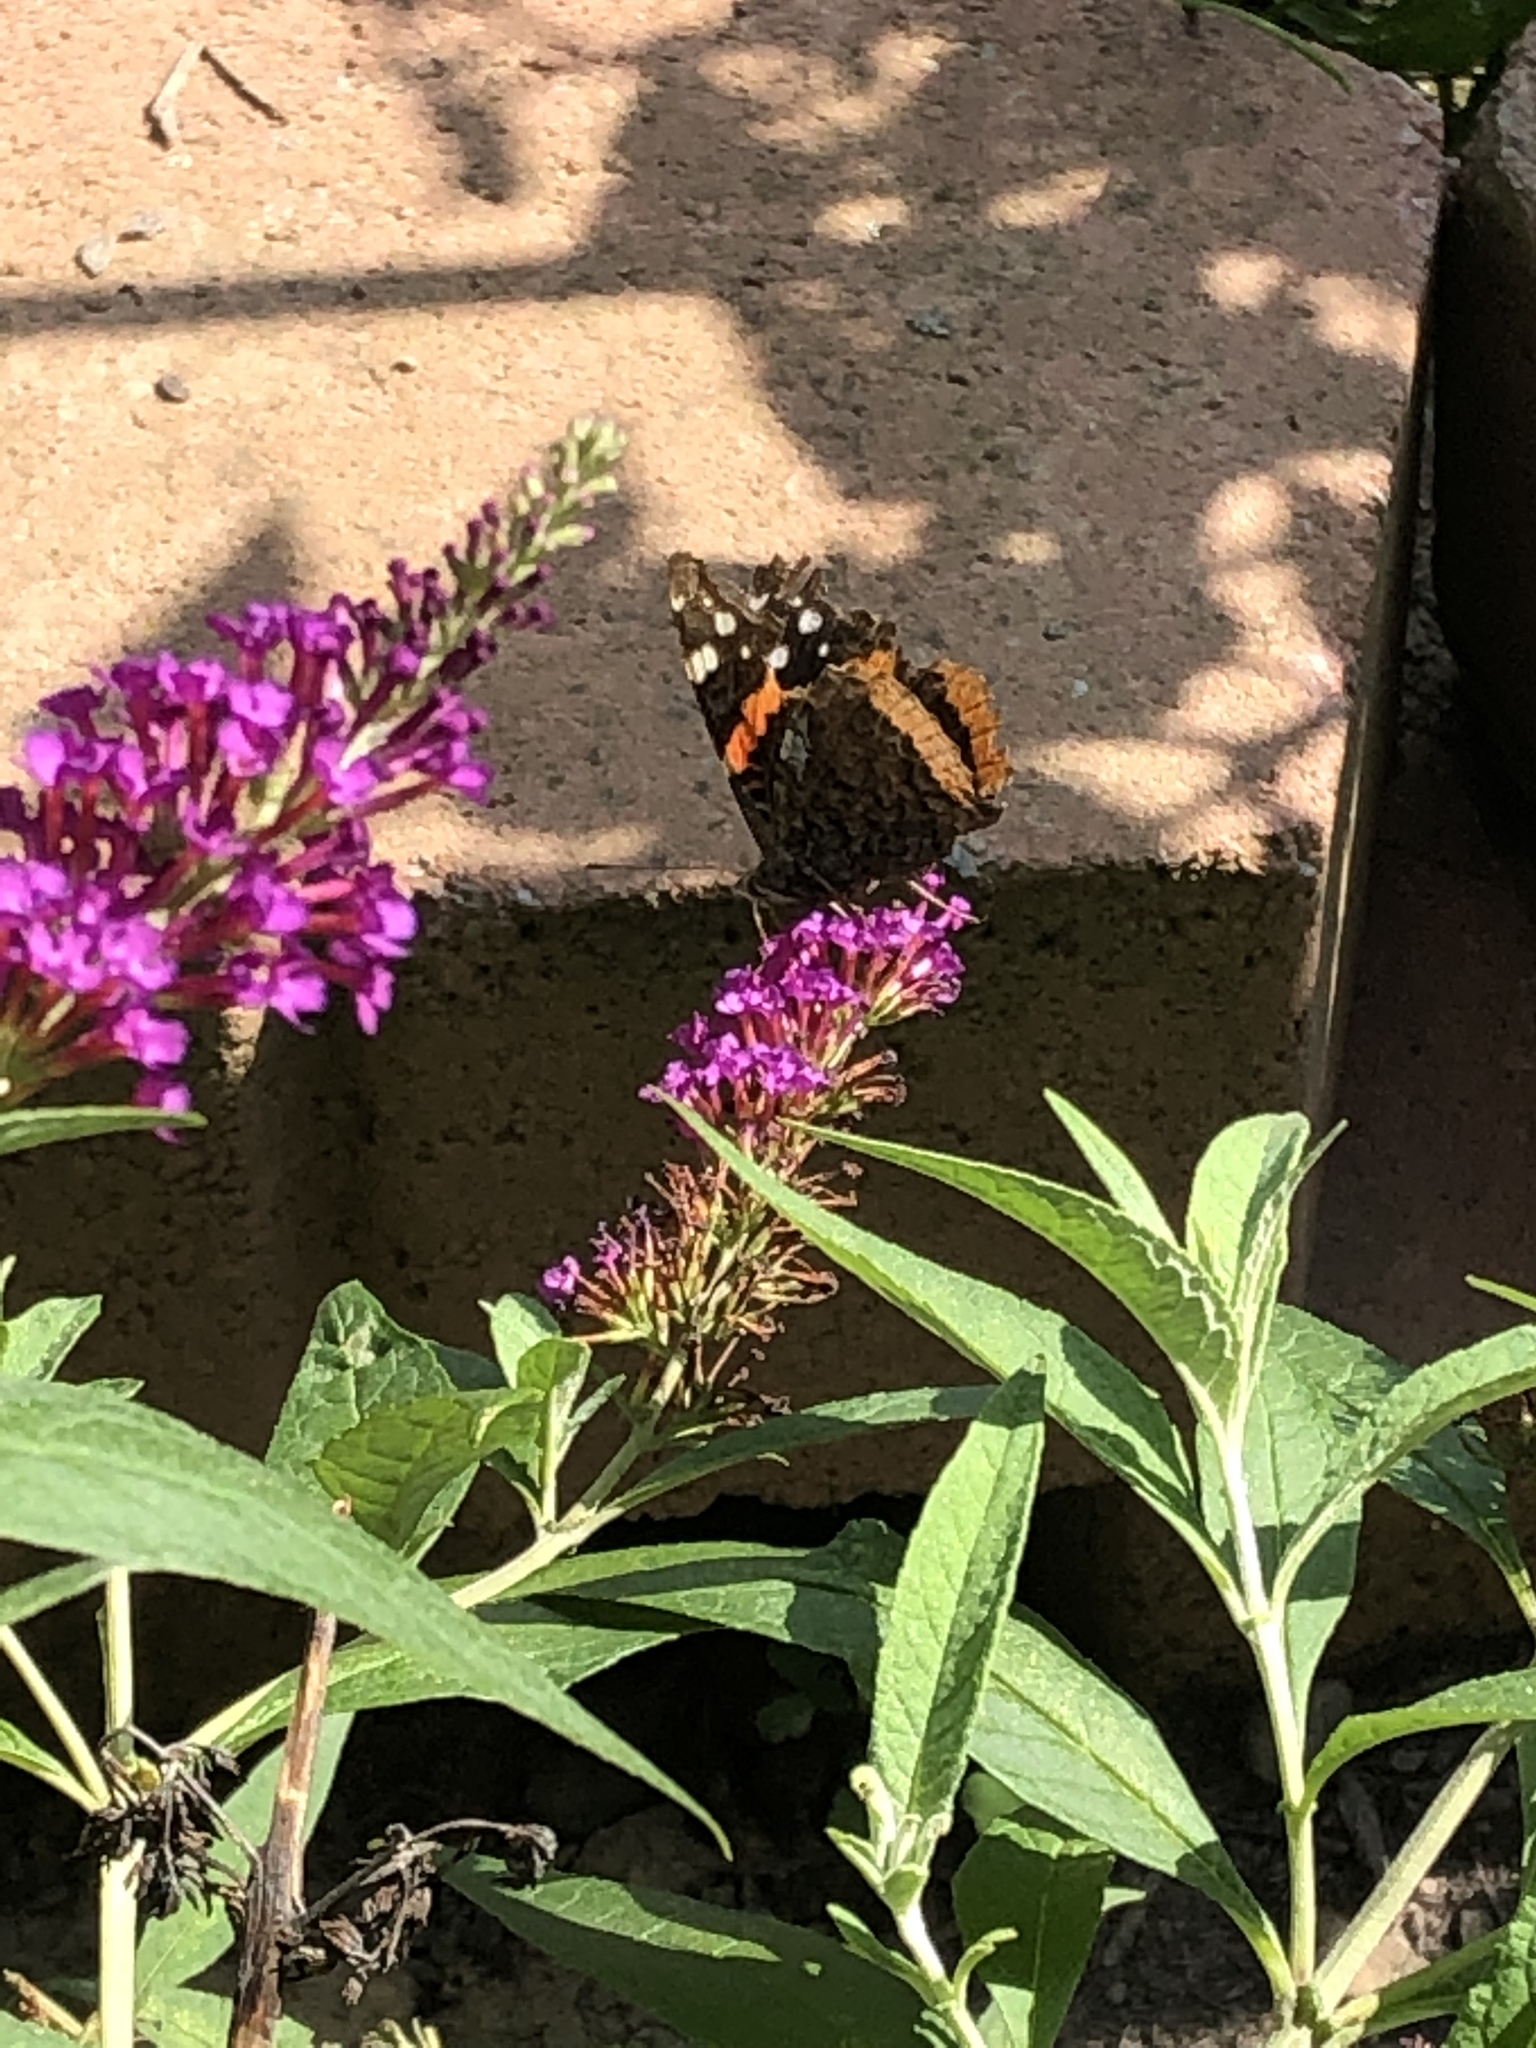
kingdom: Animalia
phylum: Arthropoda
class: Insecta
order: Lepidoptera
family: Nymphalidae
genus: Vanessa
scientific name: Vanessa atalanta
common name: Red admiral
